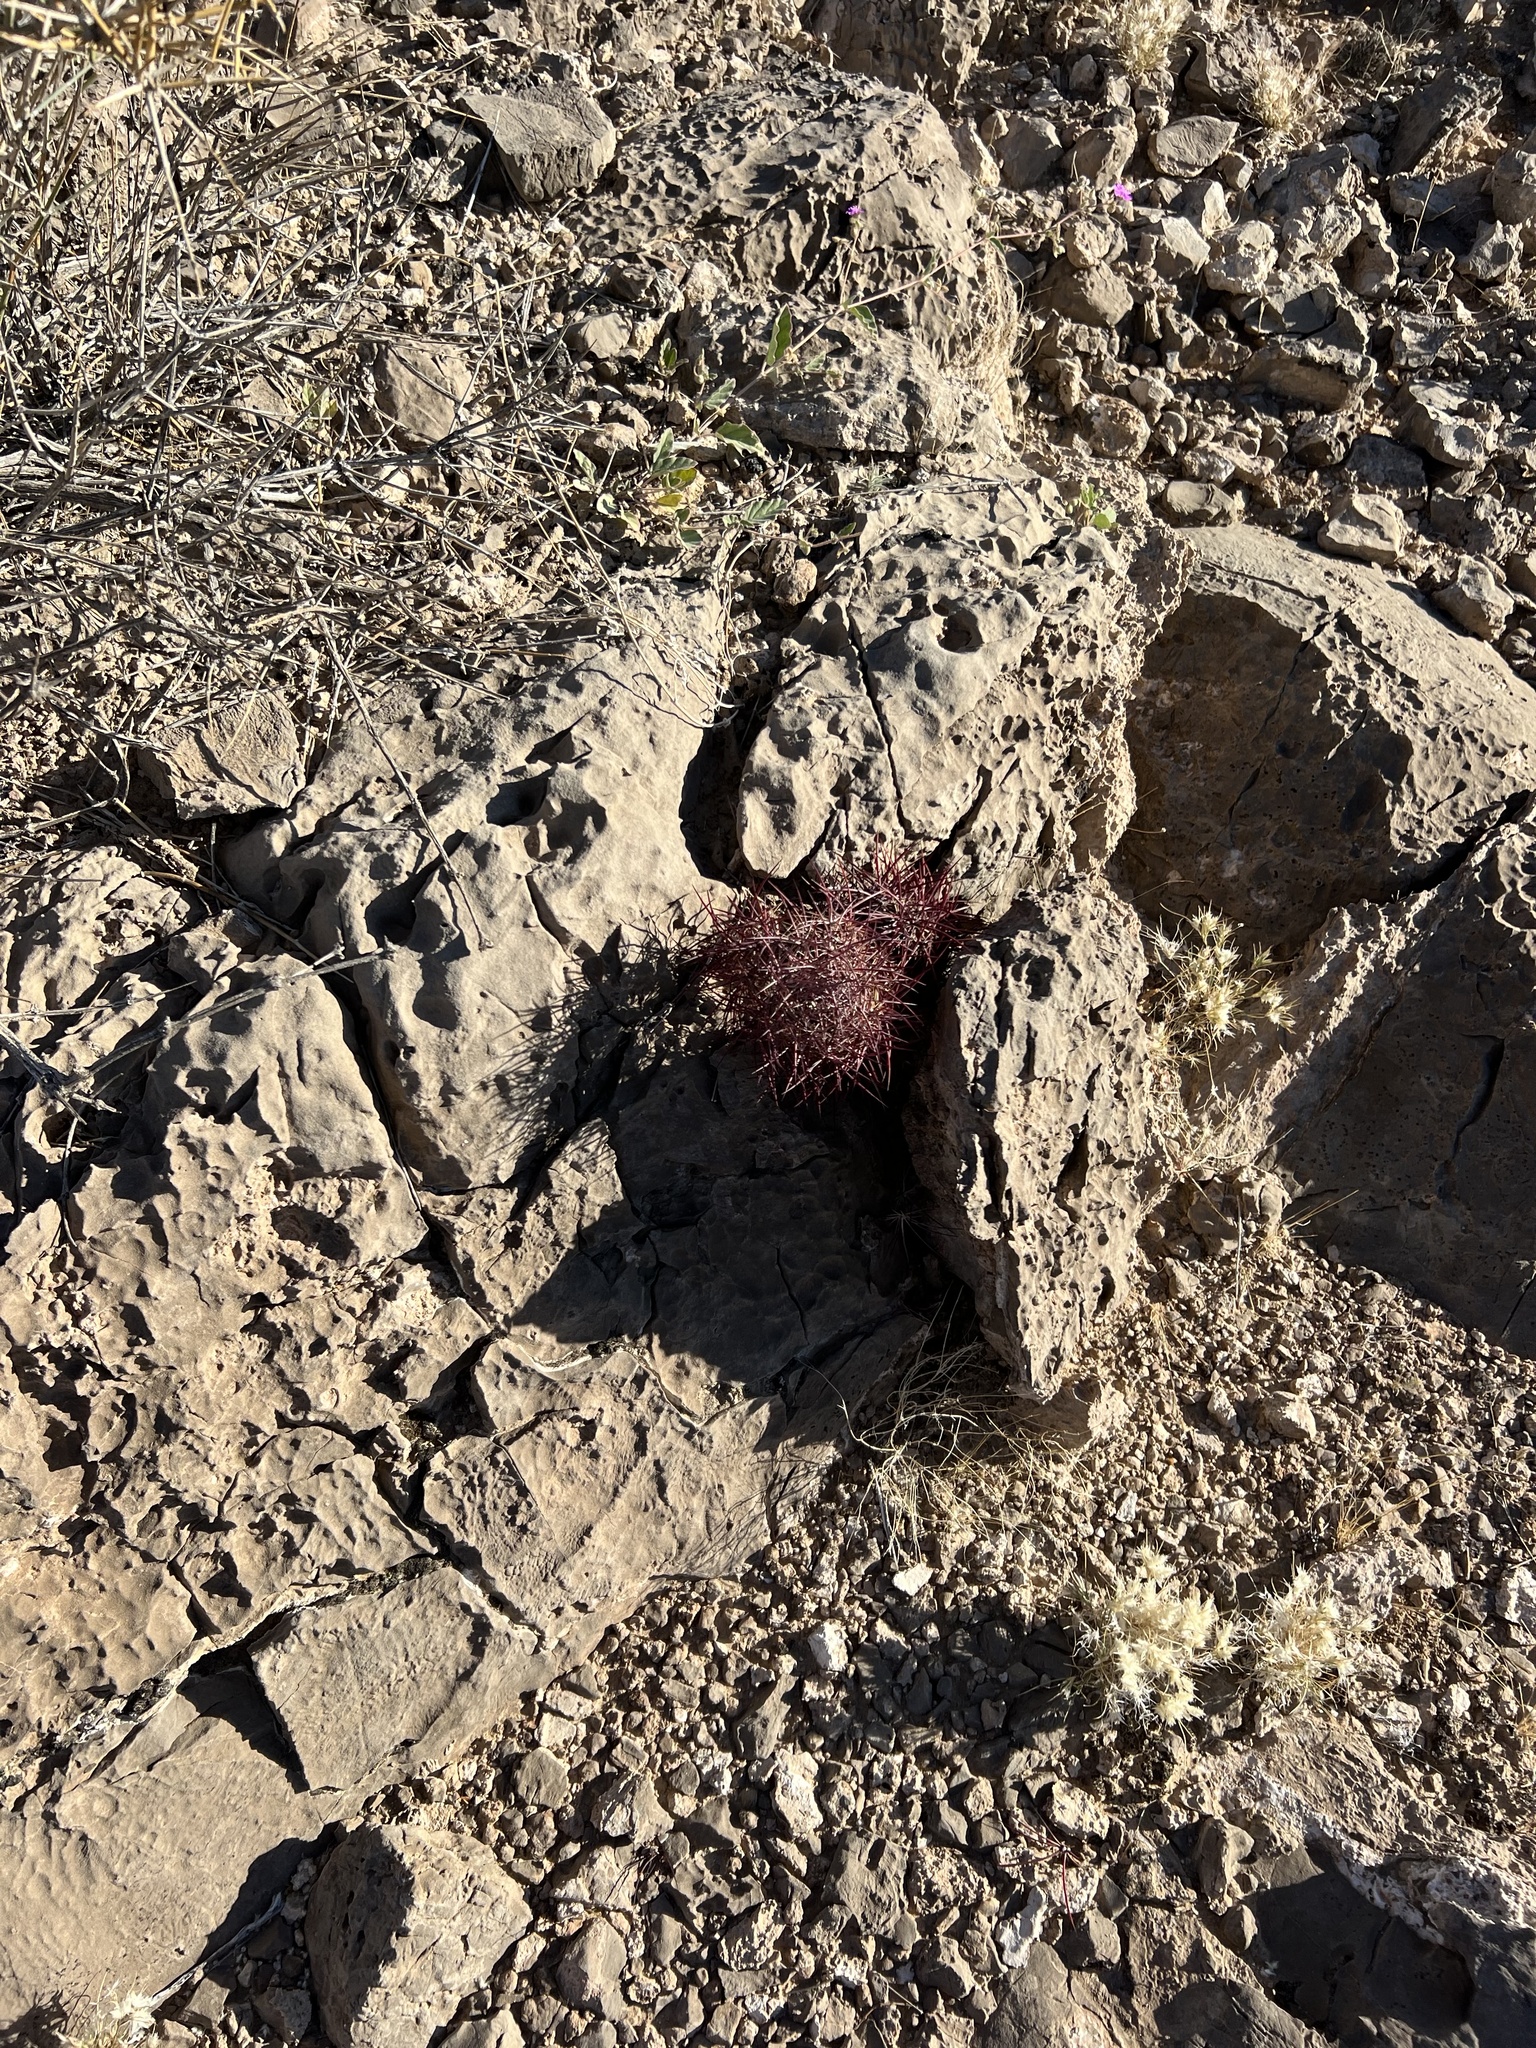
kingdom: Plantae
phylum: Tracheophyta
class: Magnoliopsida
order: Caryophyllales
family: Cactaceae
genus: Sclerocactus
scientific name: Sclerocactus johnsonii
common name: Eight-spine fishhook cactus
